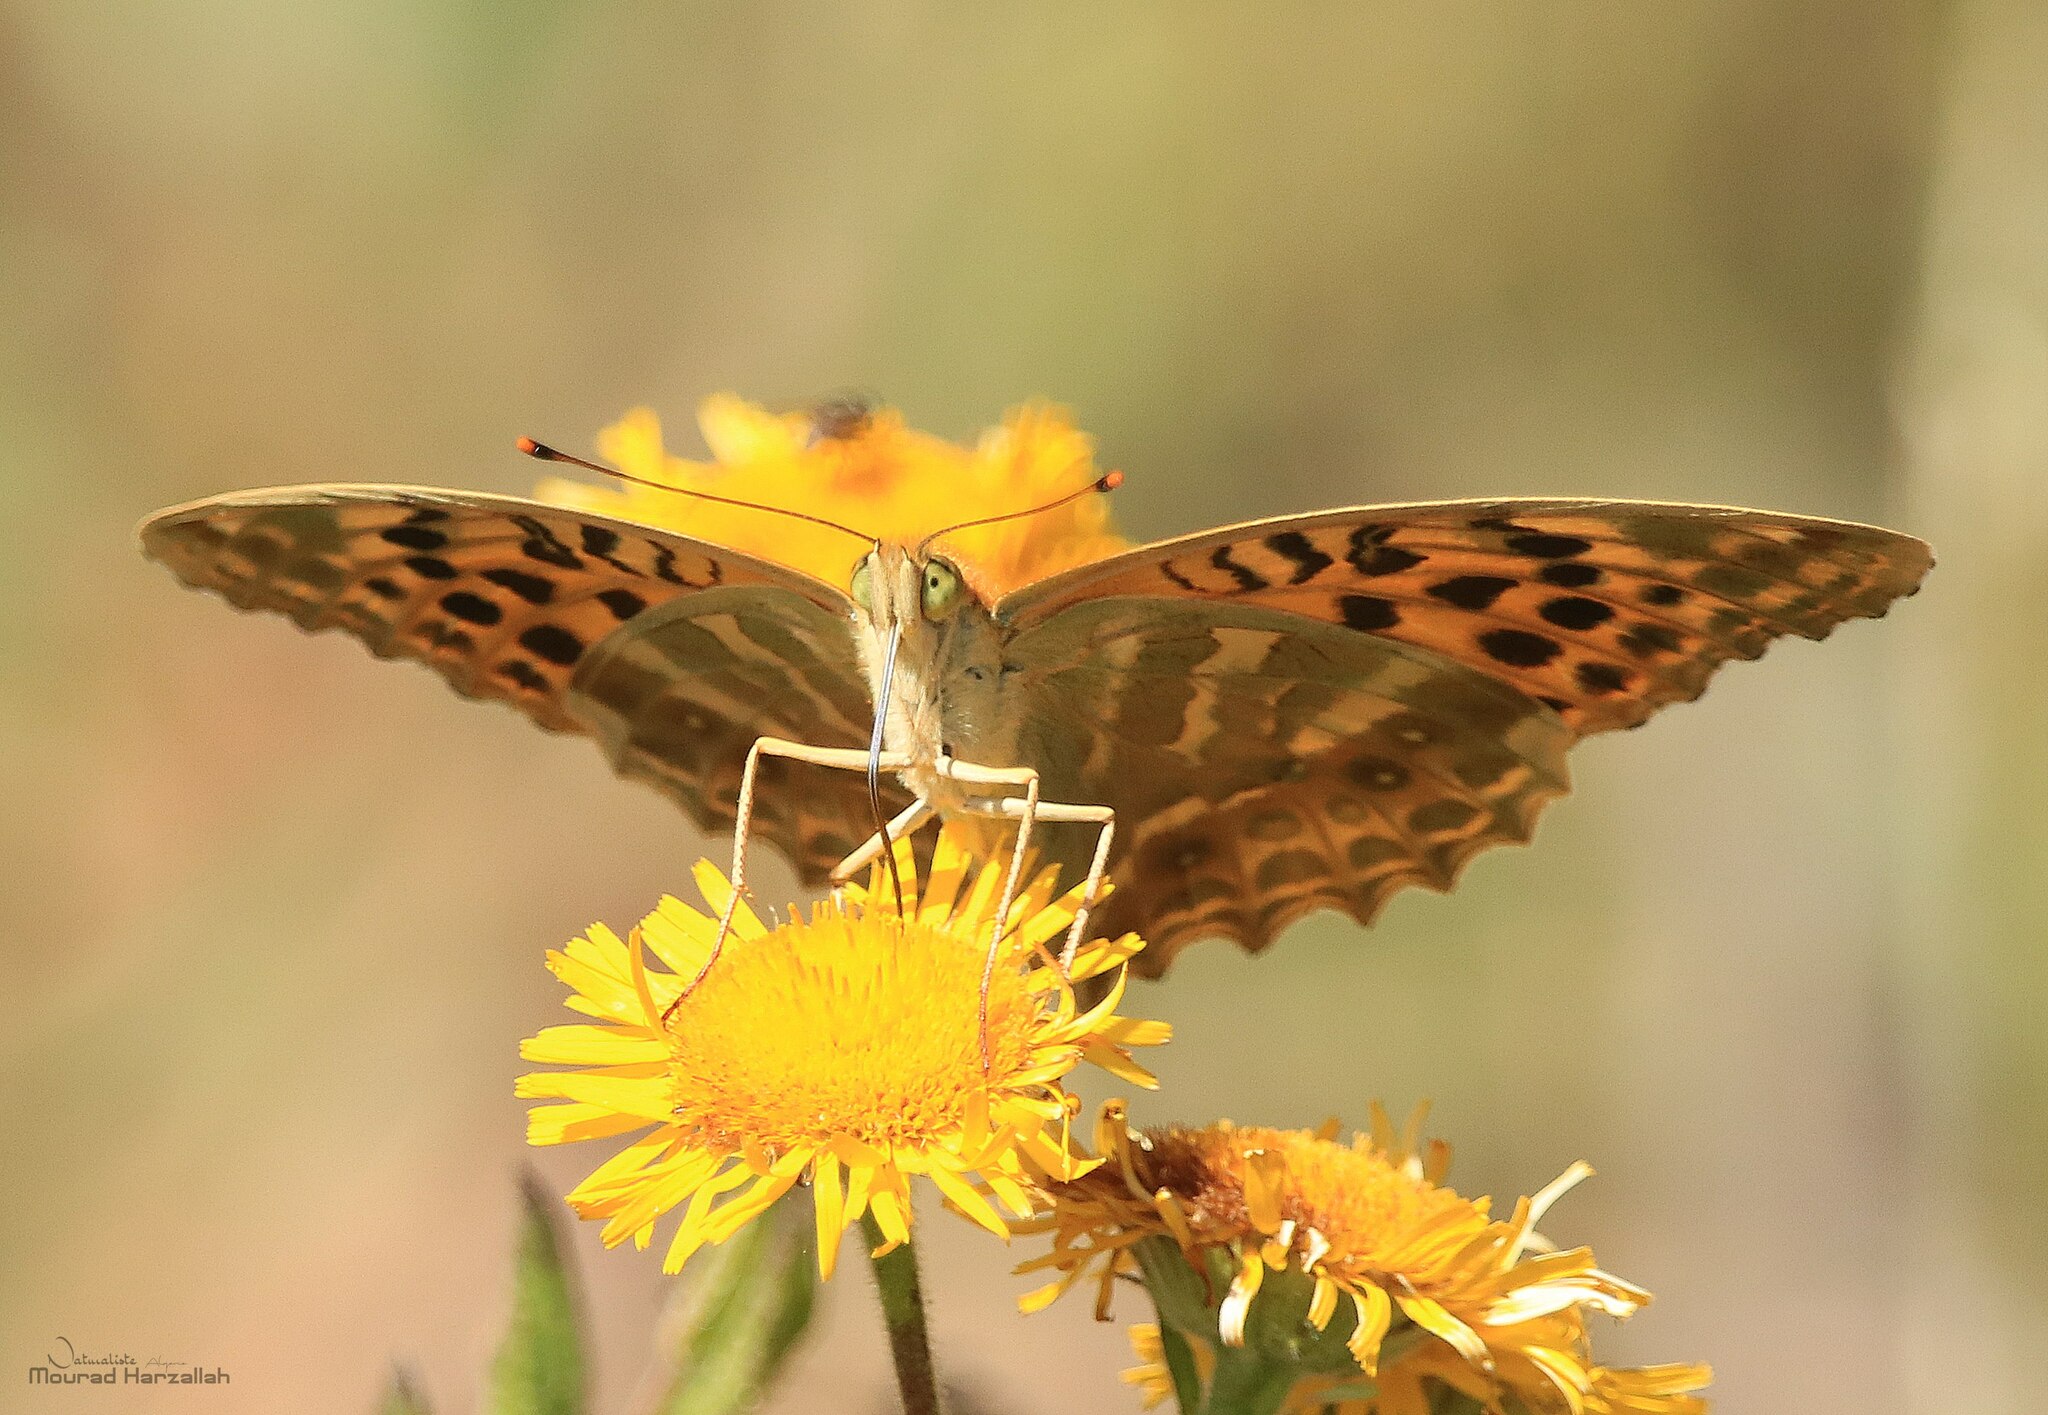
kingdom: Animalia
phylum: Arthropoda
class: Insecta
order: Lepidoptera
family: Nymphalidae
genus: Argynnis
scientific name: Argynnis paphia
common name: Silver-washed fritillary
